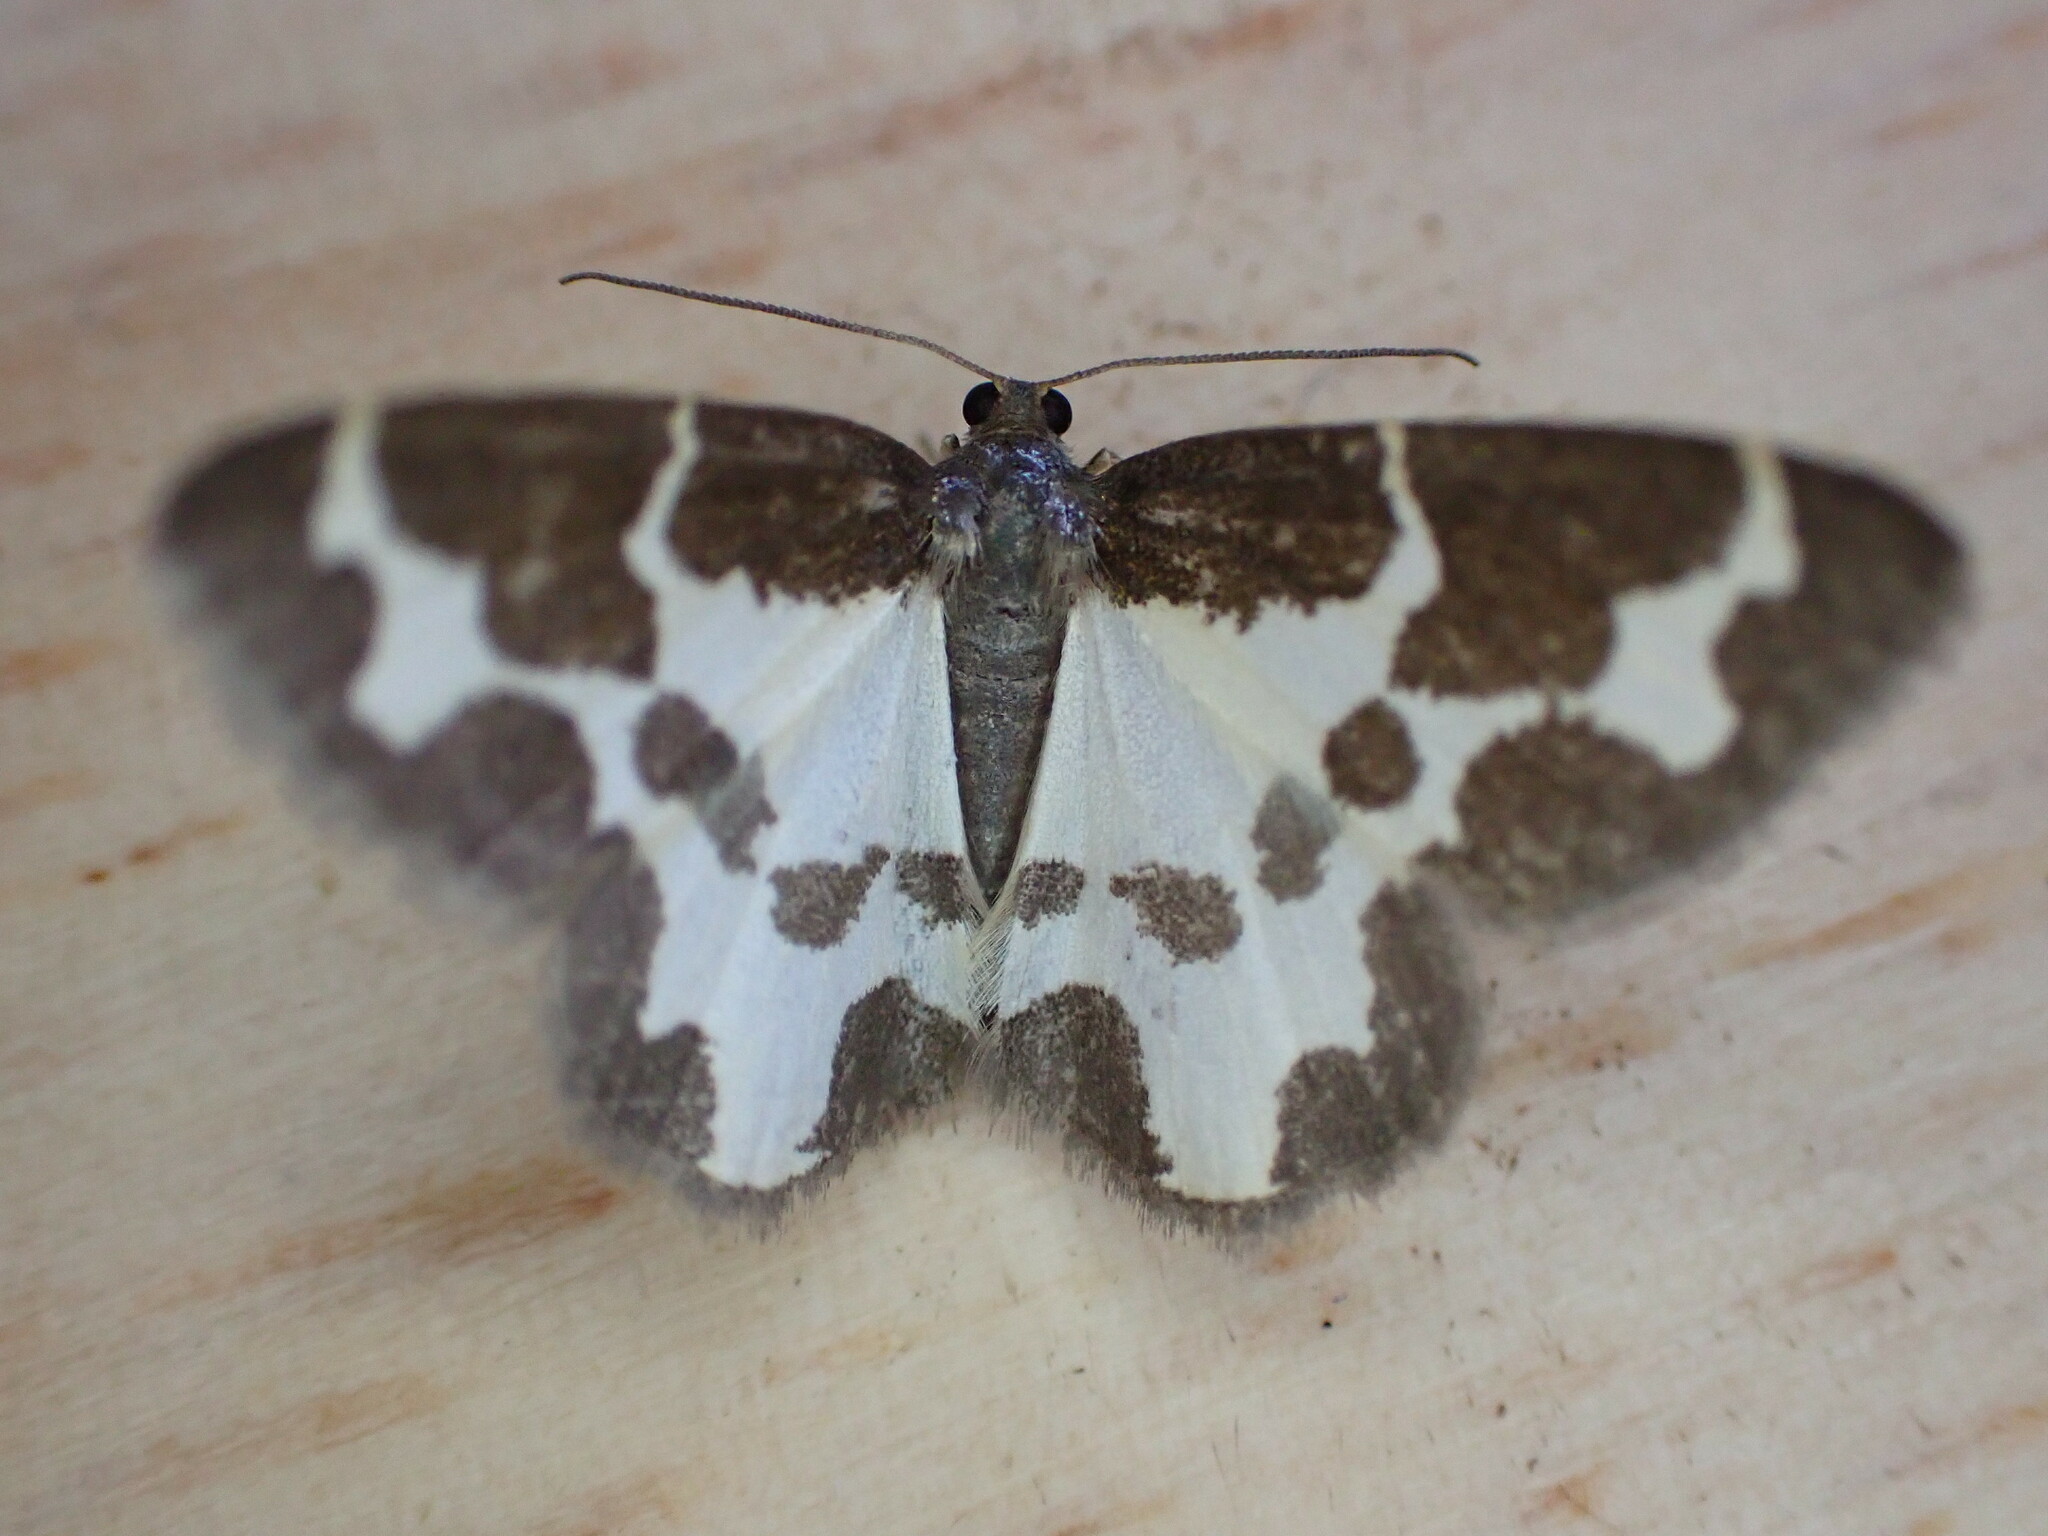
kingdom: Animalia
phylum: Arthropoda
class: Insecta
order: Lepidoptera
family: Geometridae
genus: Lomaspilis
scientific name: Lomaspilis marginata
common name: Clouded border
